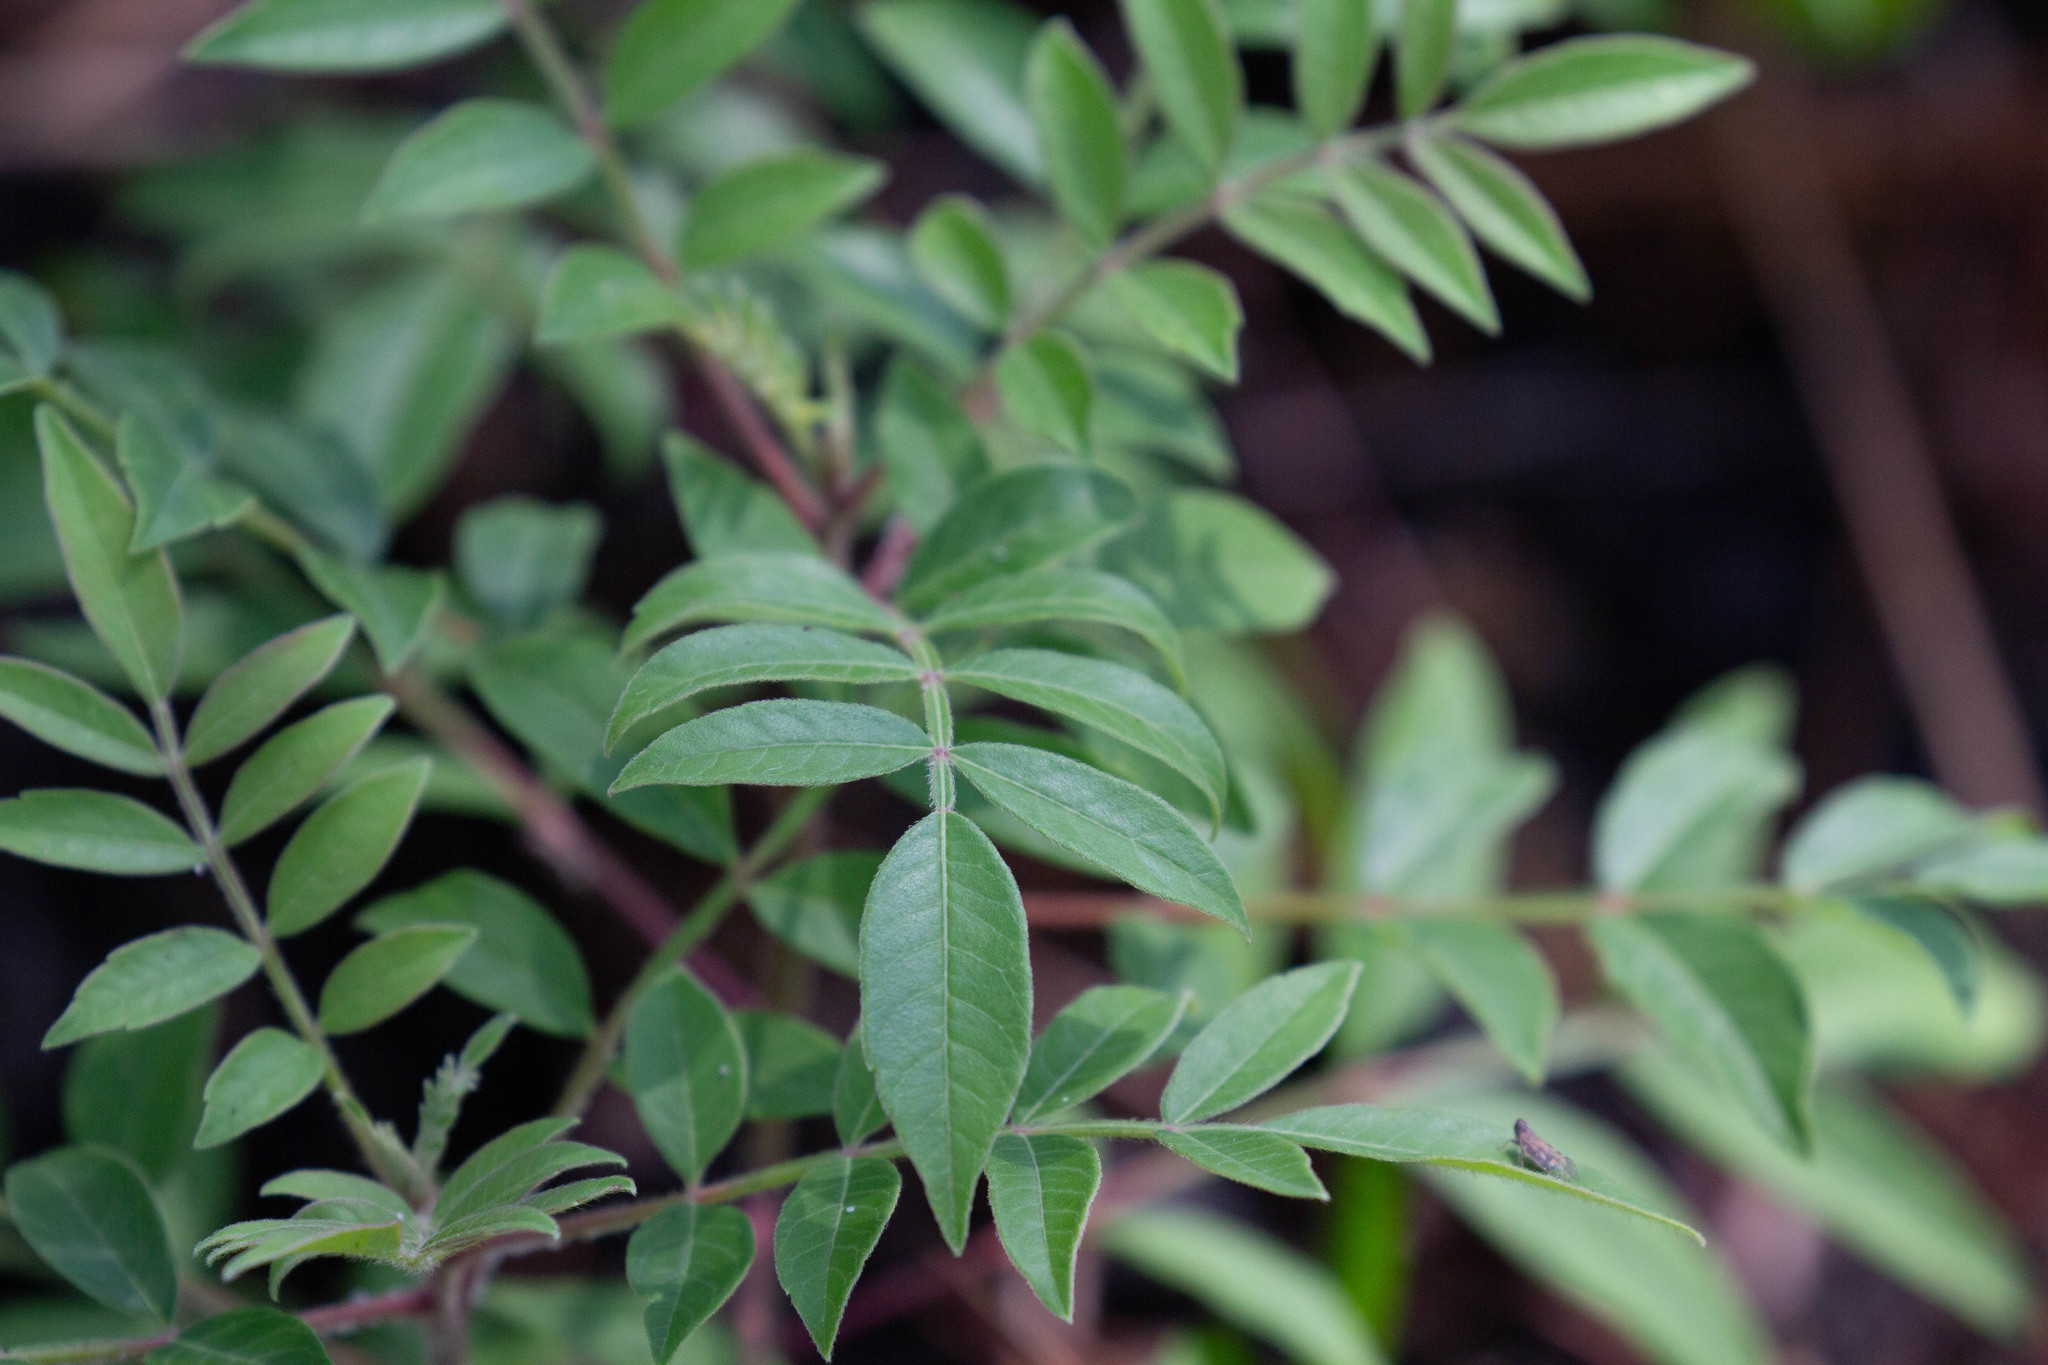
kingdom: Plantae
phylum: Tracheophyta
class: Magnoliopsida
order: Sapindales
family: Anacardiaceae
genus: Rhus
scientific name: Rhus copallina
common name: Shining sumac
